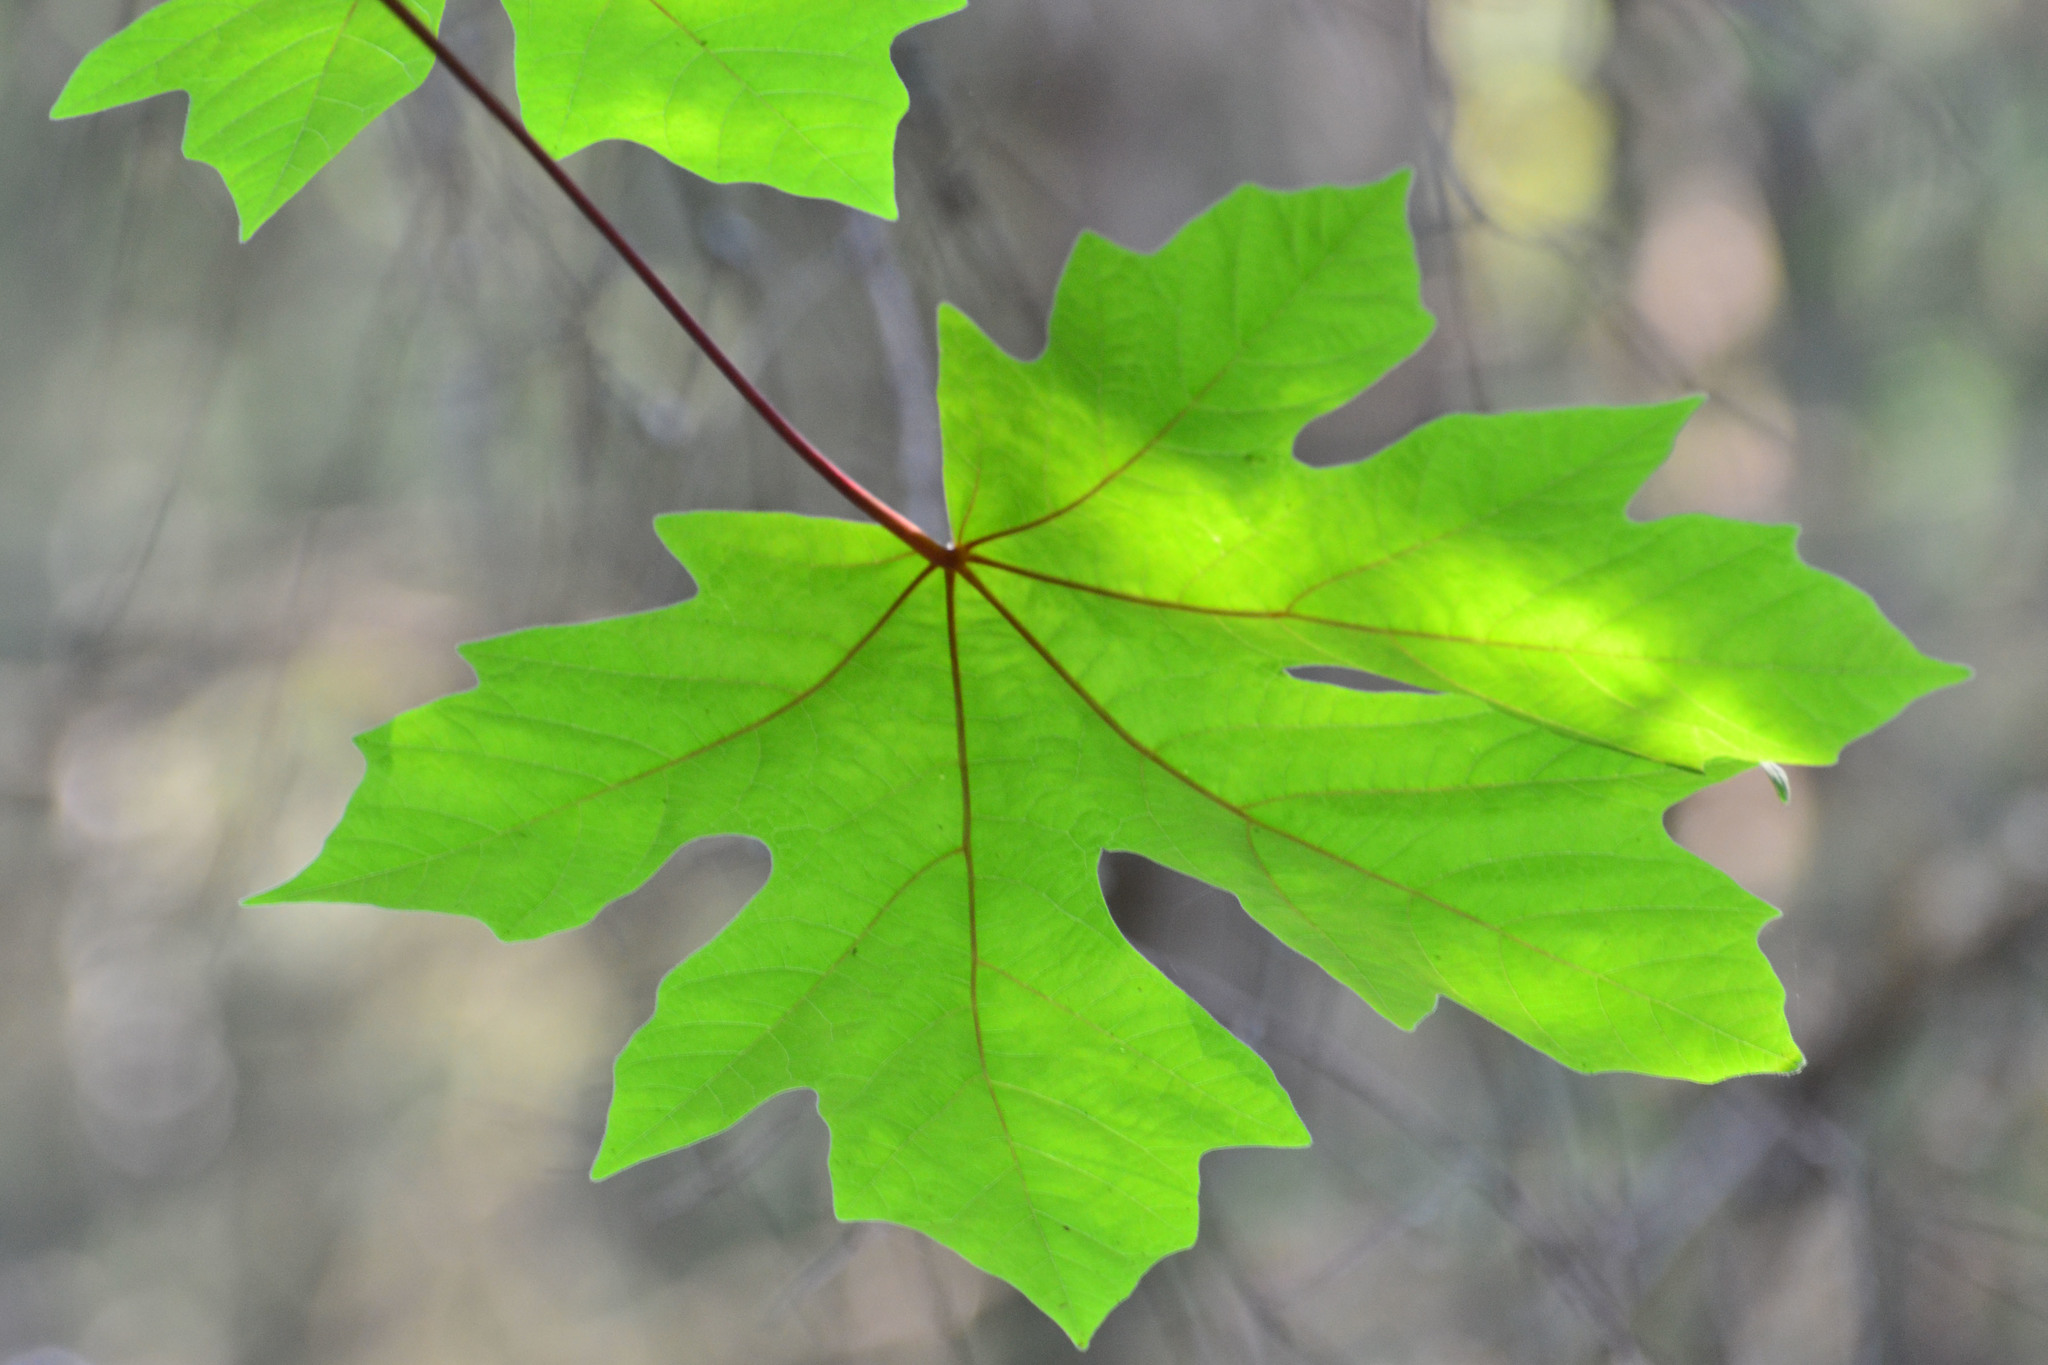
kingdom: Plantae
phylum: Tracheophyta
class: Magnoliopsida
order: Sapindales
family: Sapindaceae
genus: Acer
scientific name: Acer macrophyllum
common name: Oregon maple
